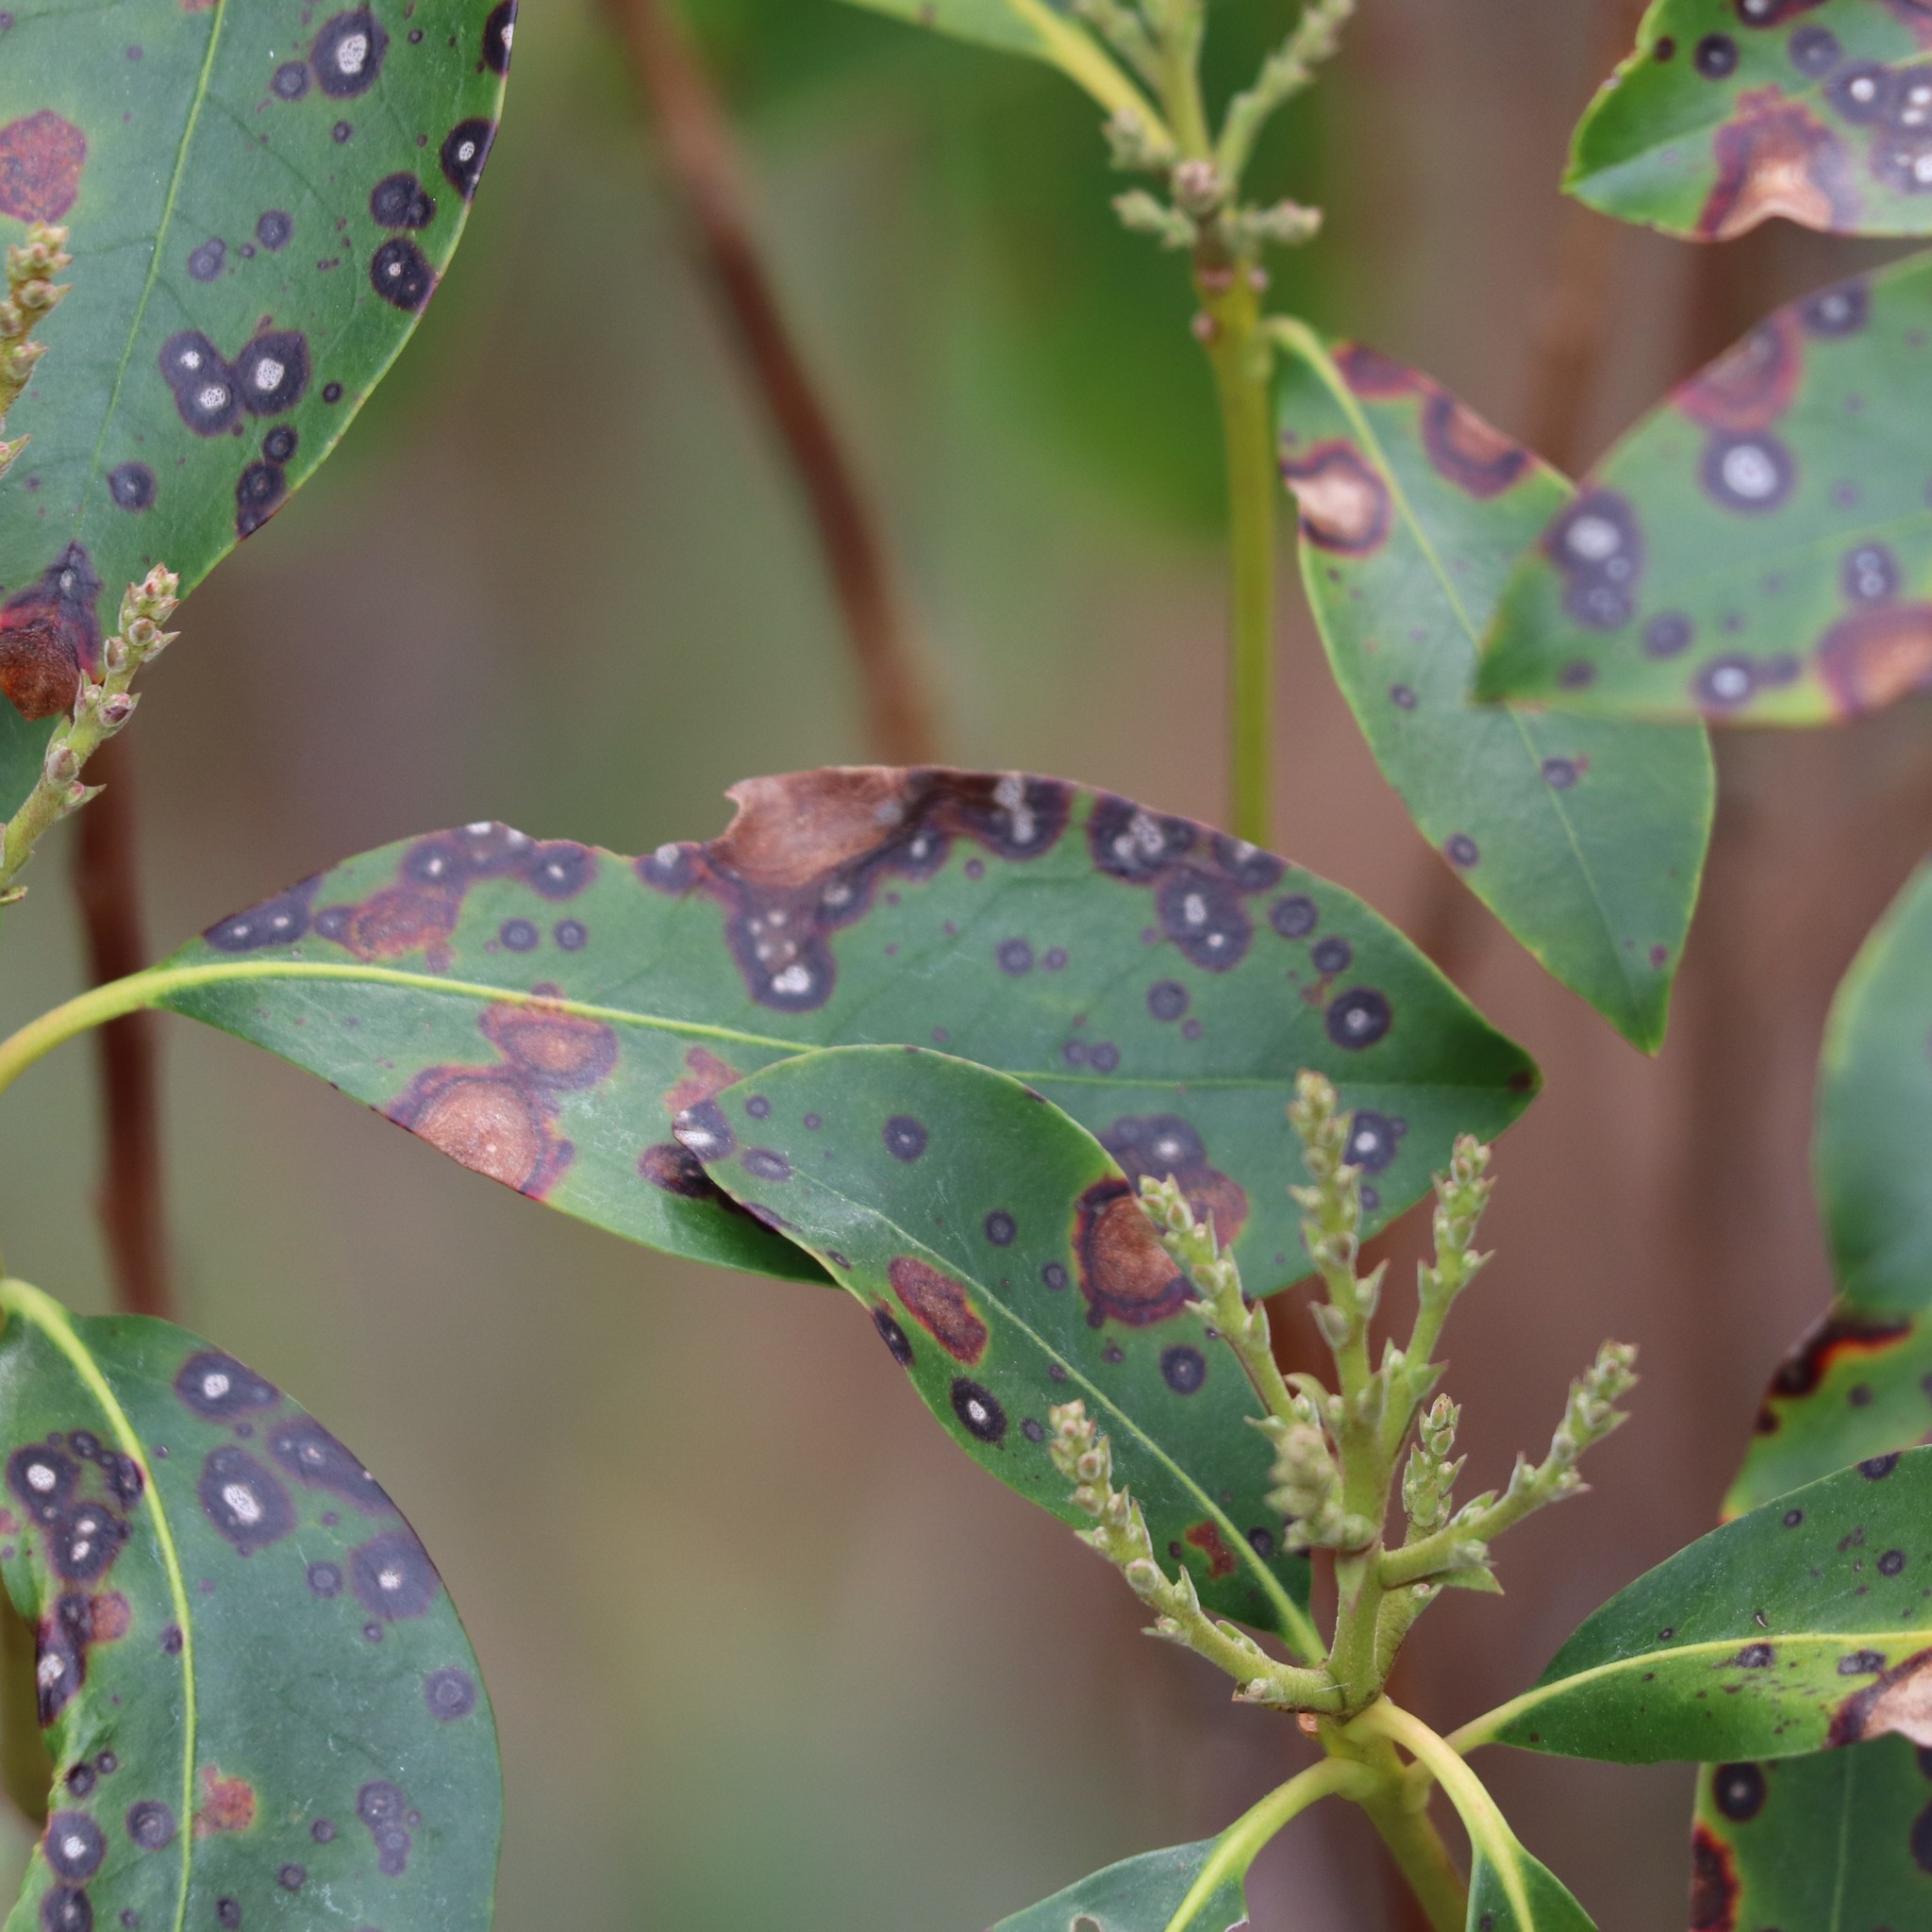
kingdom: Fungi
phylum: Ascomycota
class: Sordariomycetes
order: Diaporthales
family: Diaporthaceae
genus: Diaporthe
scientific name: Diaporthe kalmiae
